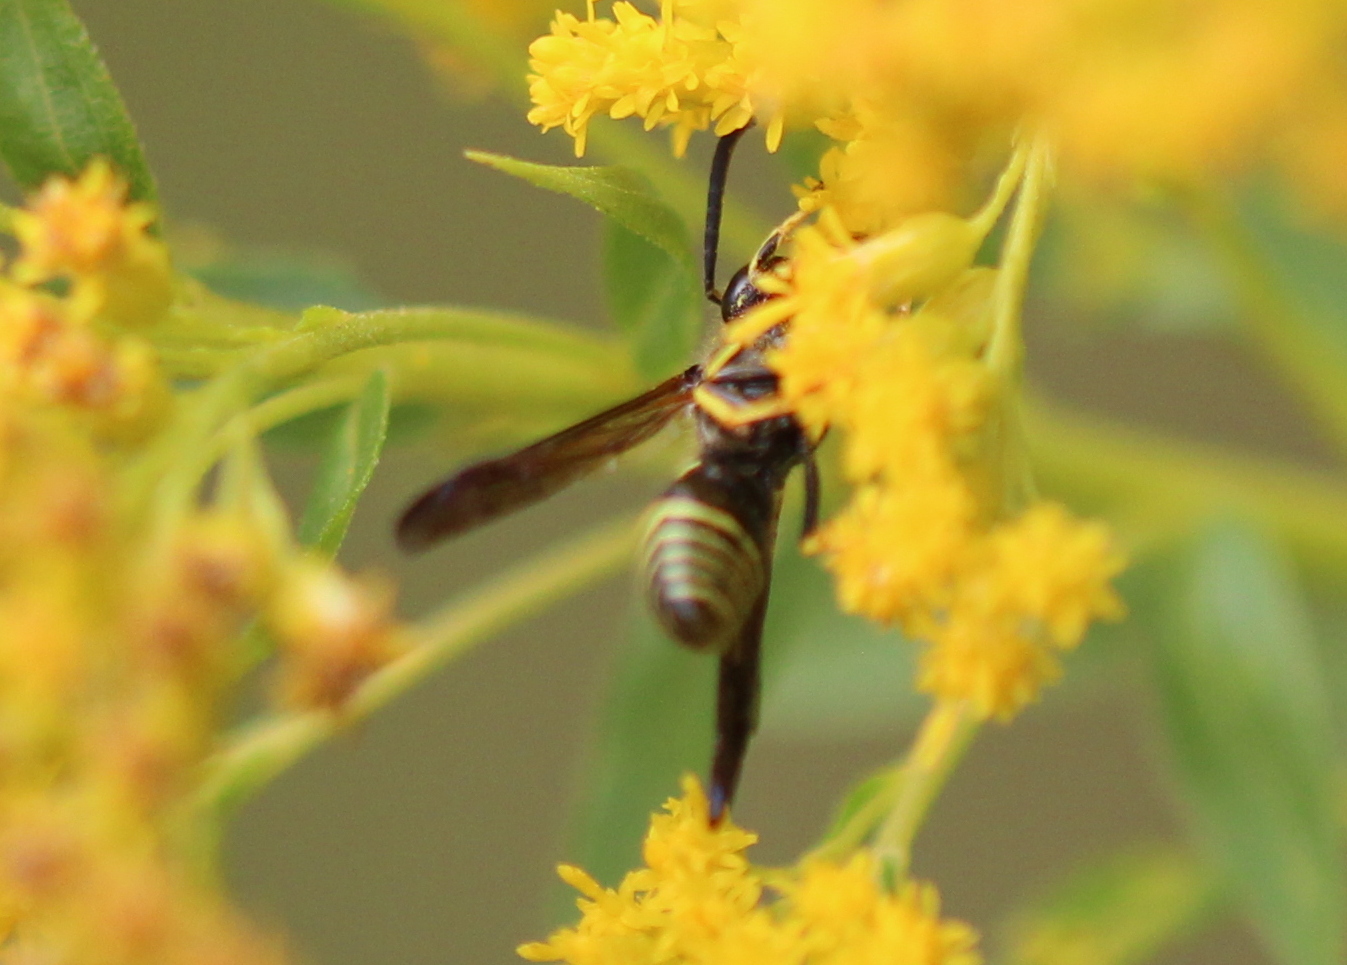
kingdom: Animalia
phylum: Arthropoda
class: Insecta
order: Hymenoptera
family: Vespidae
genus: Ancistrocerus
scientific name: Ancistrocerus
